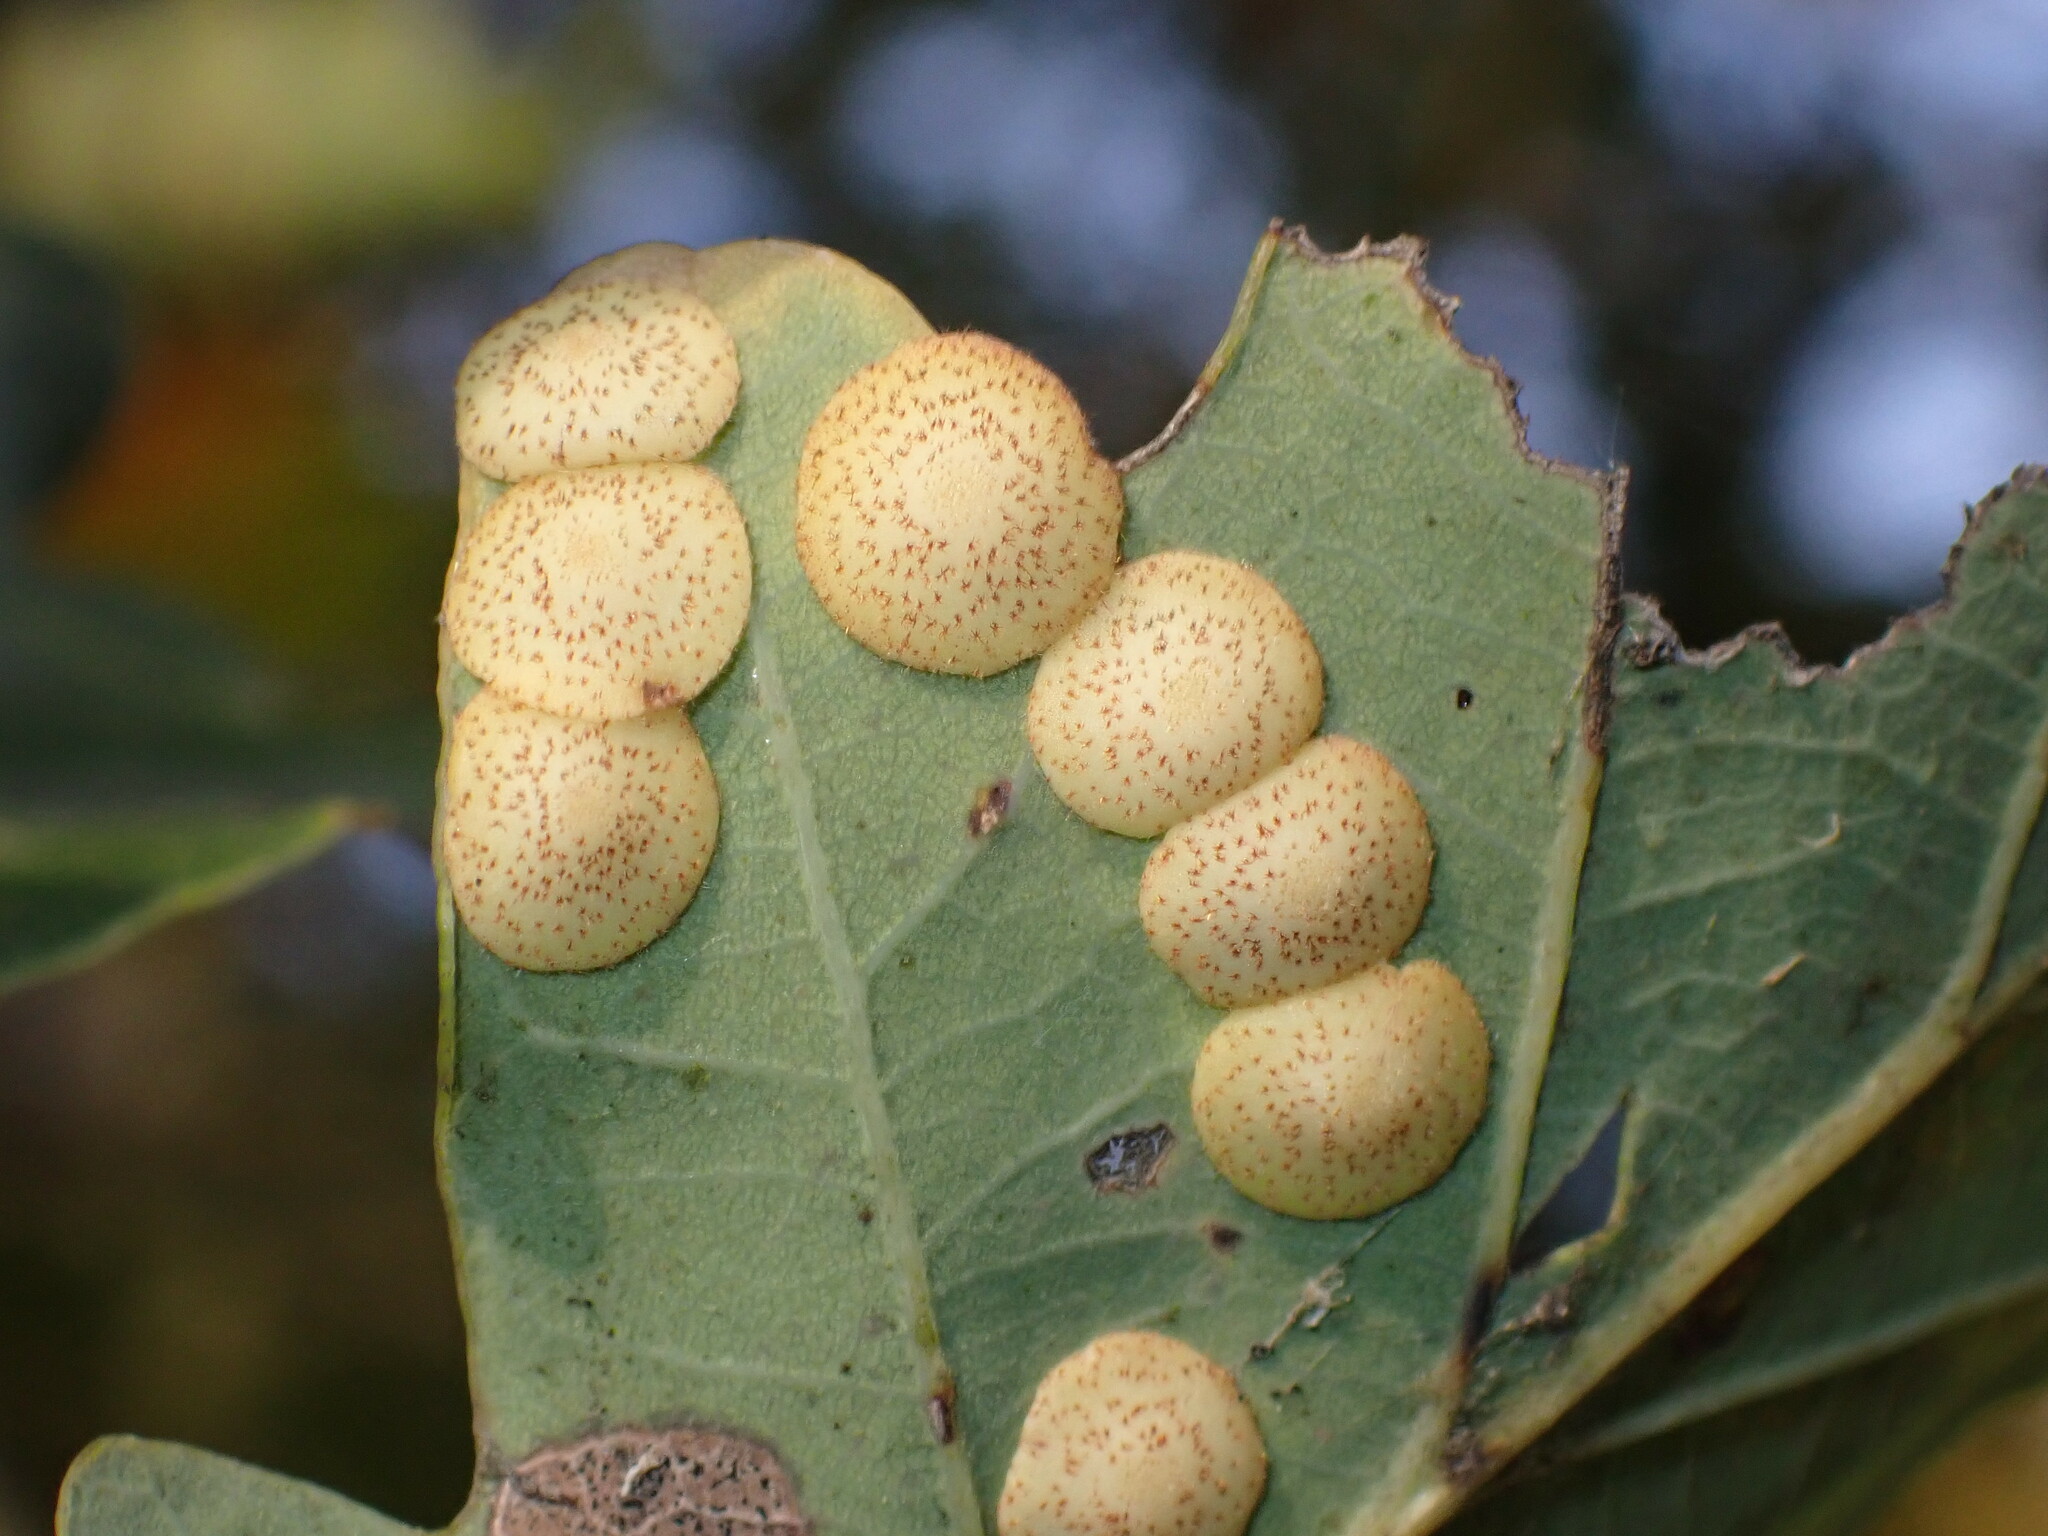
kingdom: Animalia
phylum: Arthropoda
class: Insecta
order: Hymenoptera
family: Cynipidae
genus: Neuroterus
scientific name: Neuroterus quercusbaccarum
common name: Common spangle gall
